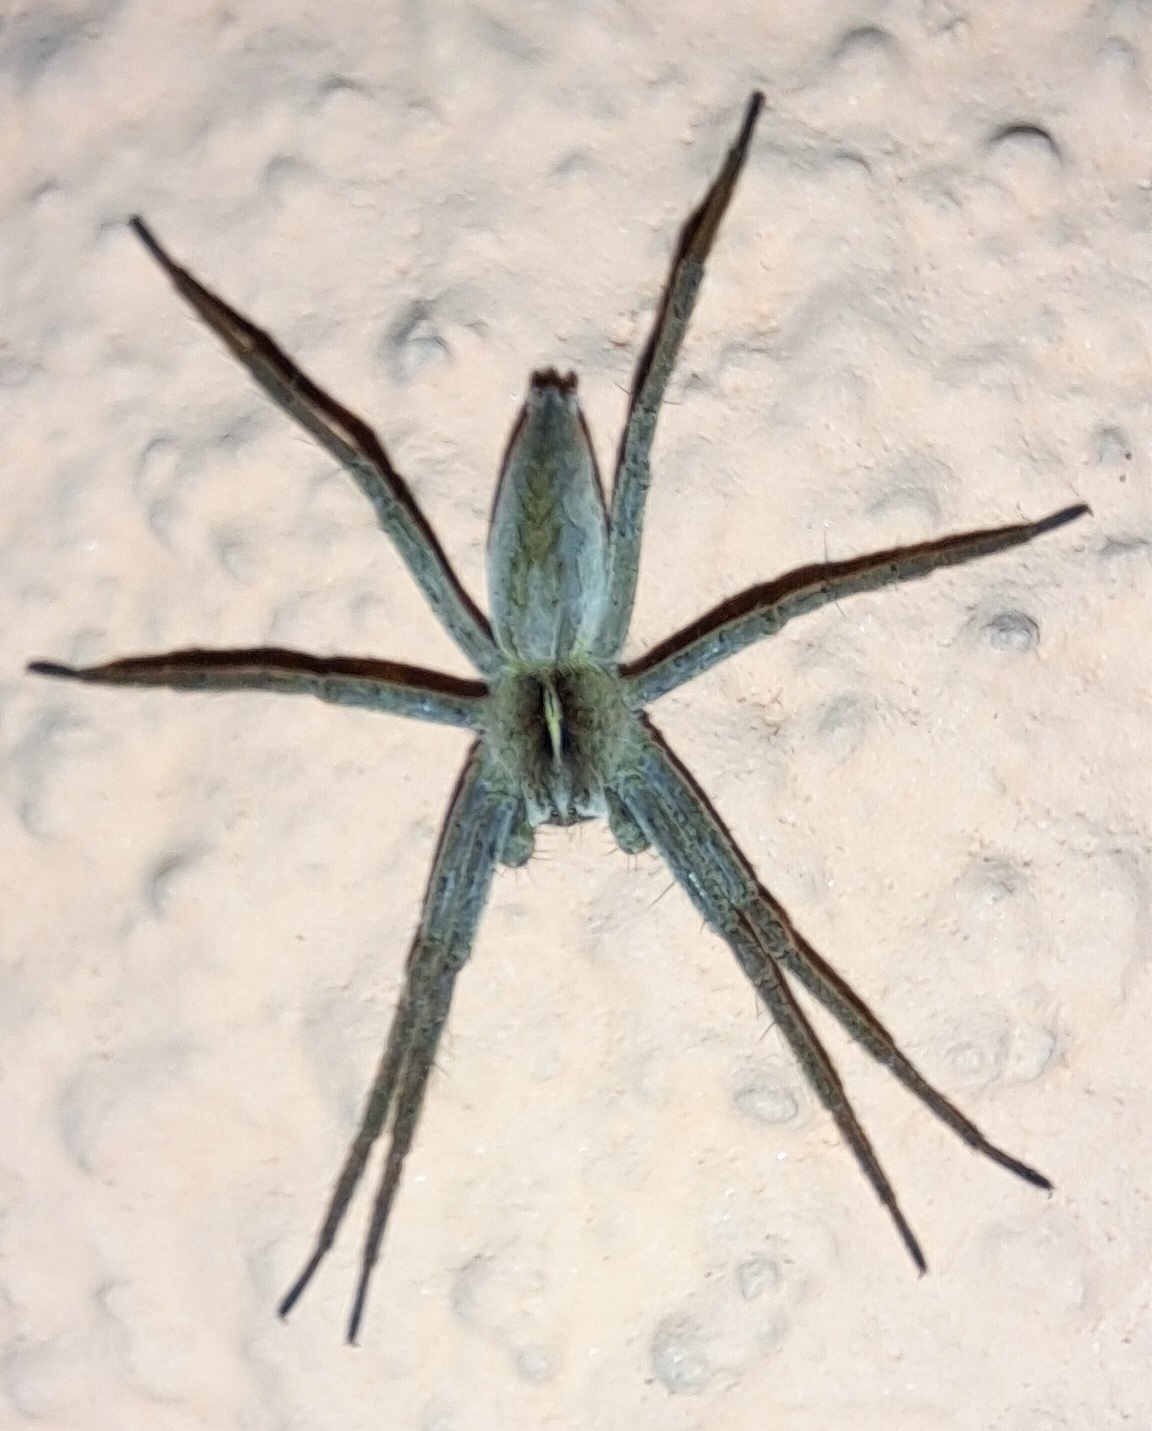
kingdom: Animalia
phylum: Arthropoda
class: Arachnida
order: Araneae
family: Pisauridae
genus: Pisaura
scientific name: Pisaura mirabilis
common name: Tent spider
